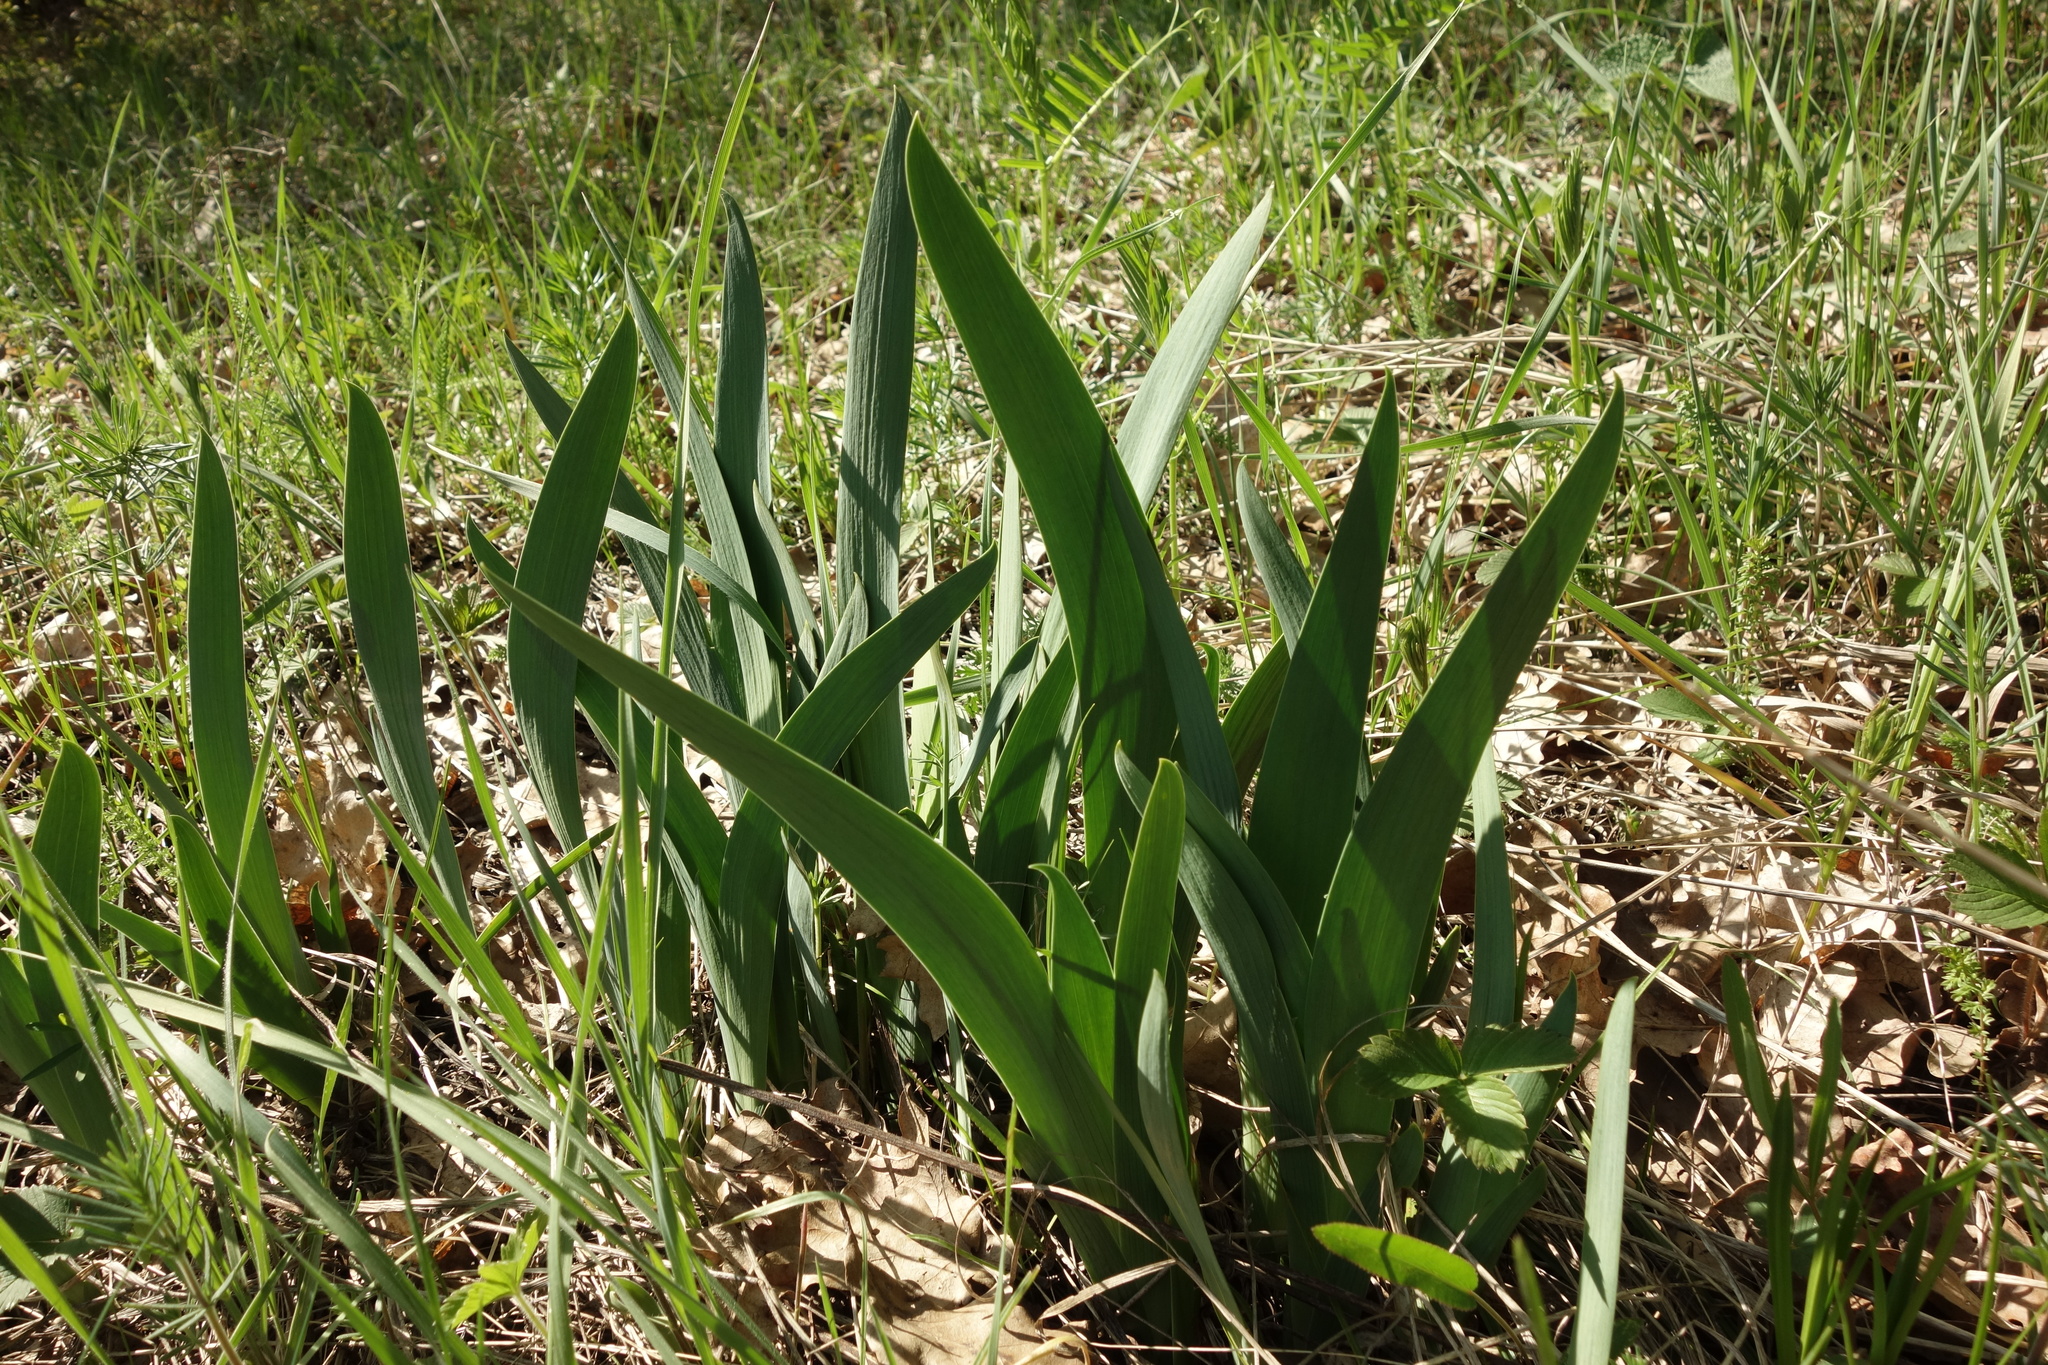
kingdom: Plantae
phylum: Tracheophyta
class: Liliopsida
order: Asparagales
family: Iridaceae
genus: Iris
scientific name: Iris aphylla
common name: Stool iris
